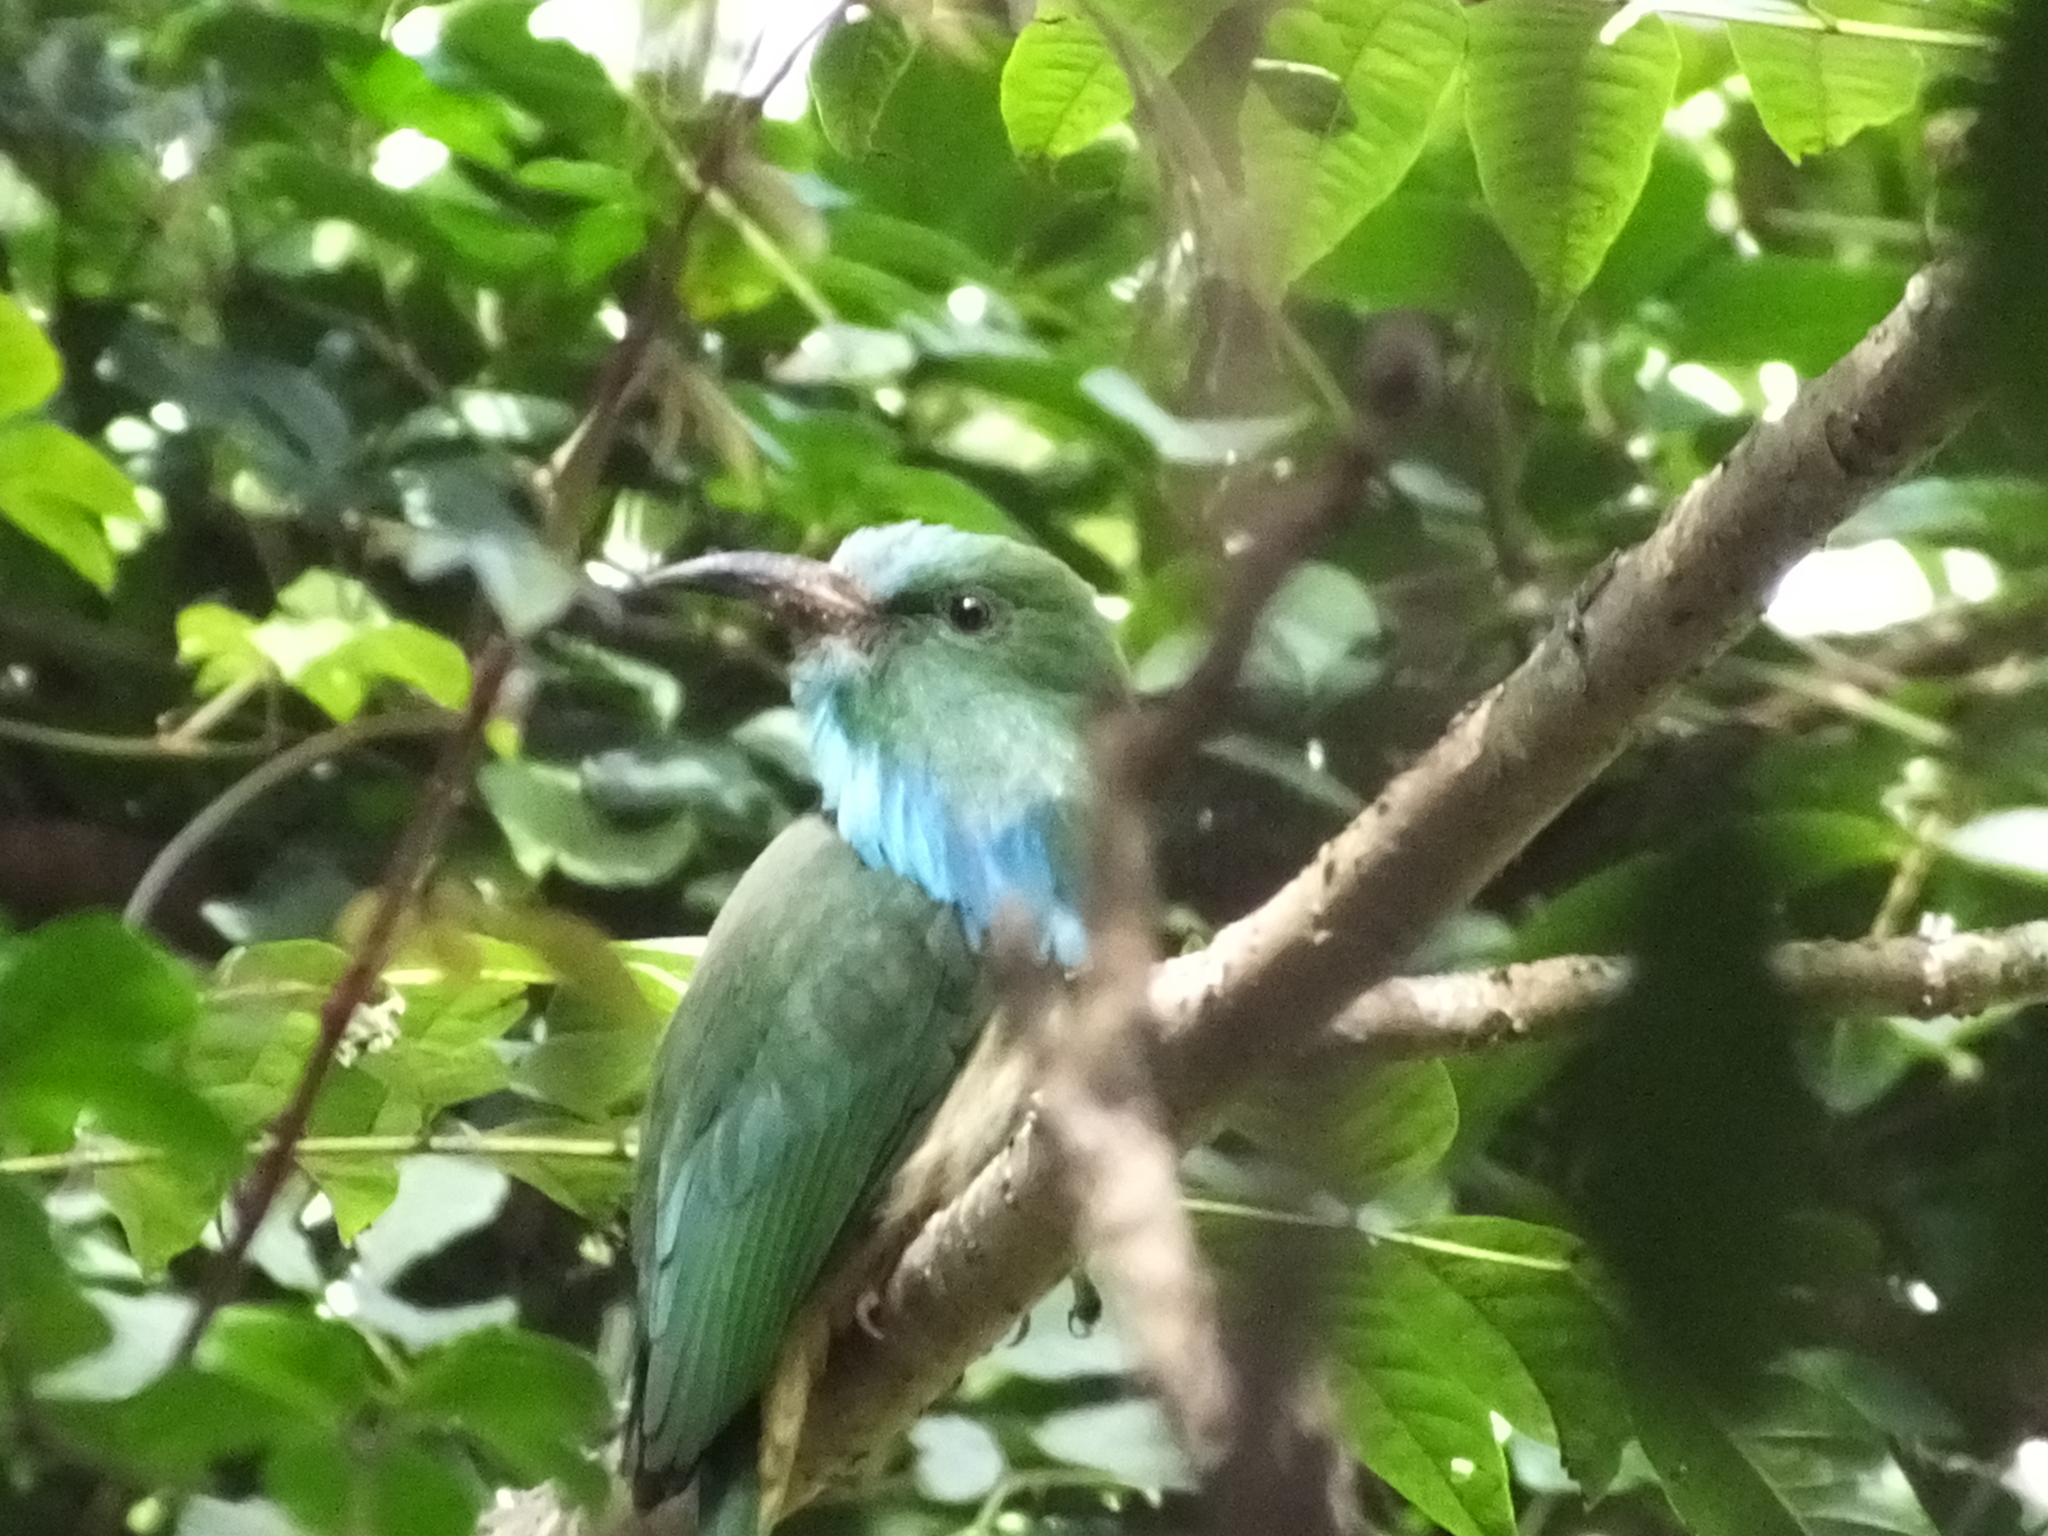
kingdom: Animalia
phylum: Chordata
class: Aves
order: Coraciiformes
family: Meropidae
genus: Nyctyornis
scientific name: Nyctyornis athertoni
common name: Blue-bearded bee-eater
